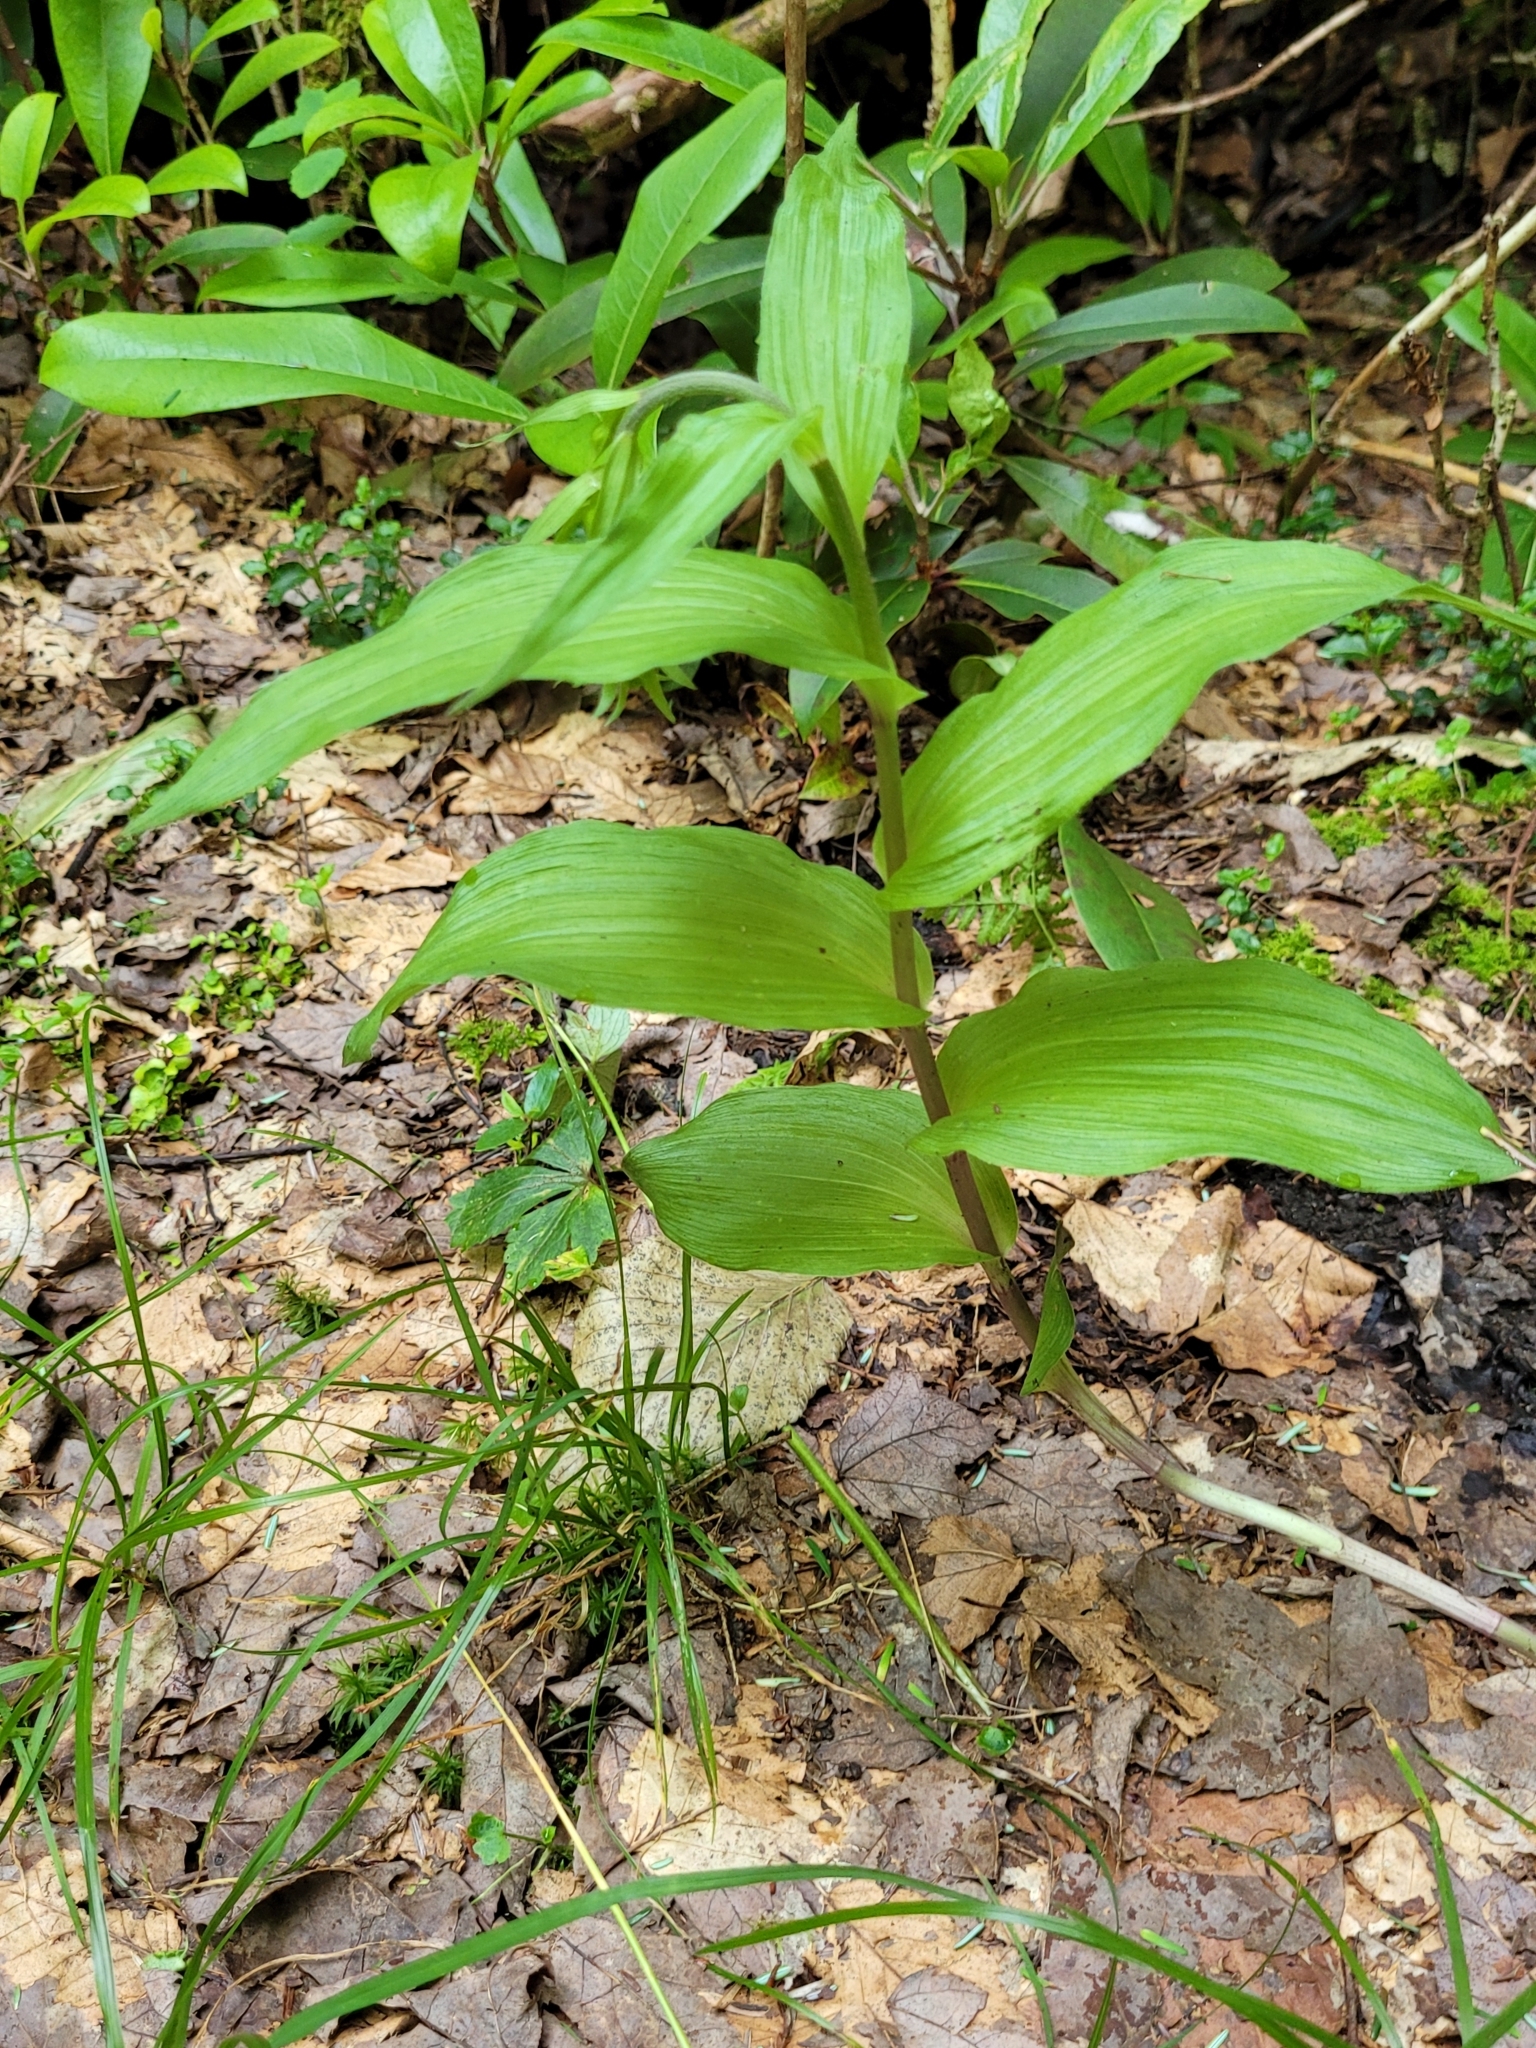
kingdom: Plantae
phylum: Tracheophyta
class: Liliopsida
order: Asparagales
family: Orchidaceae
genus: Epipactis
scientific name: Epipactis helleborine
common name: Broad-leaved helleborine
